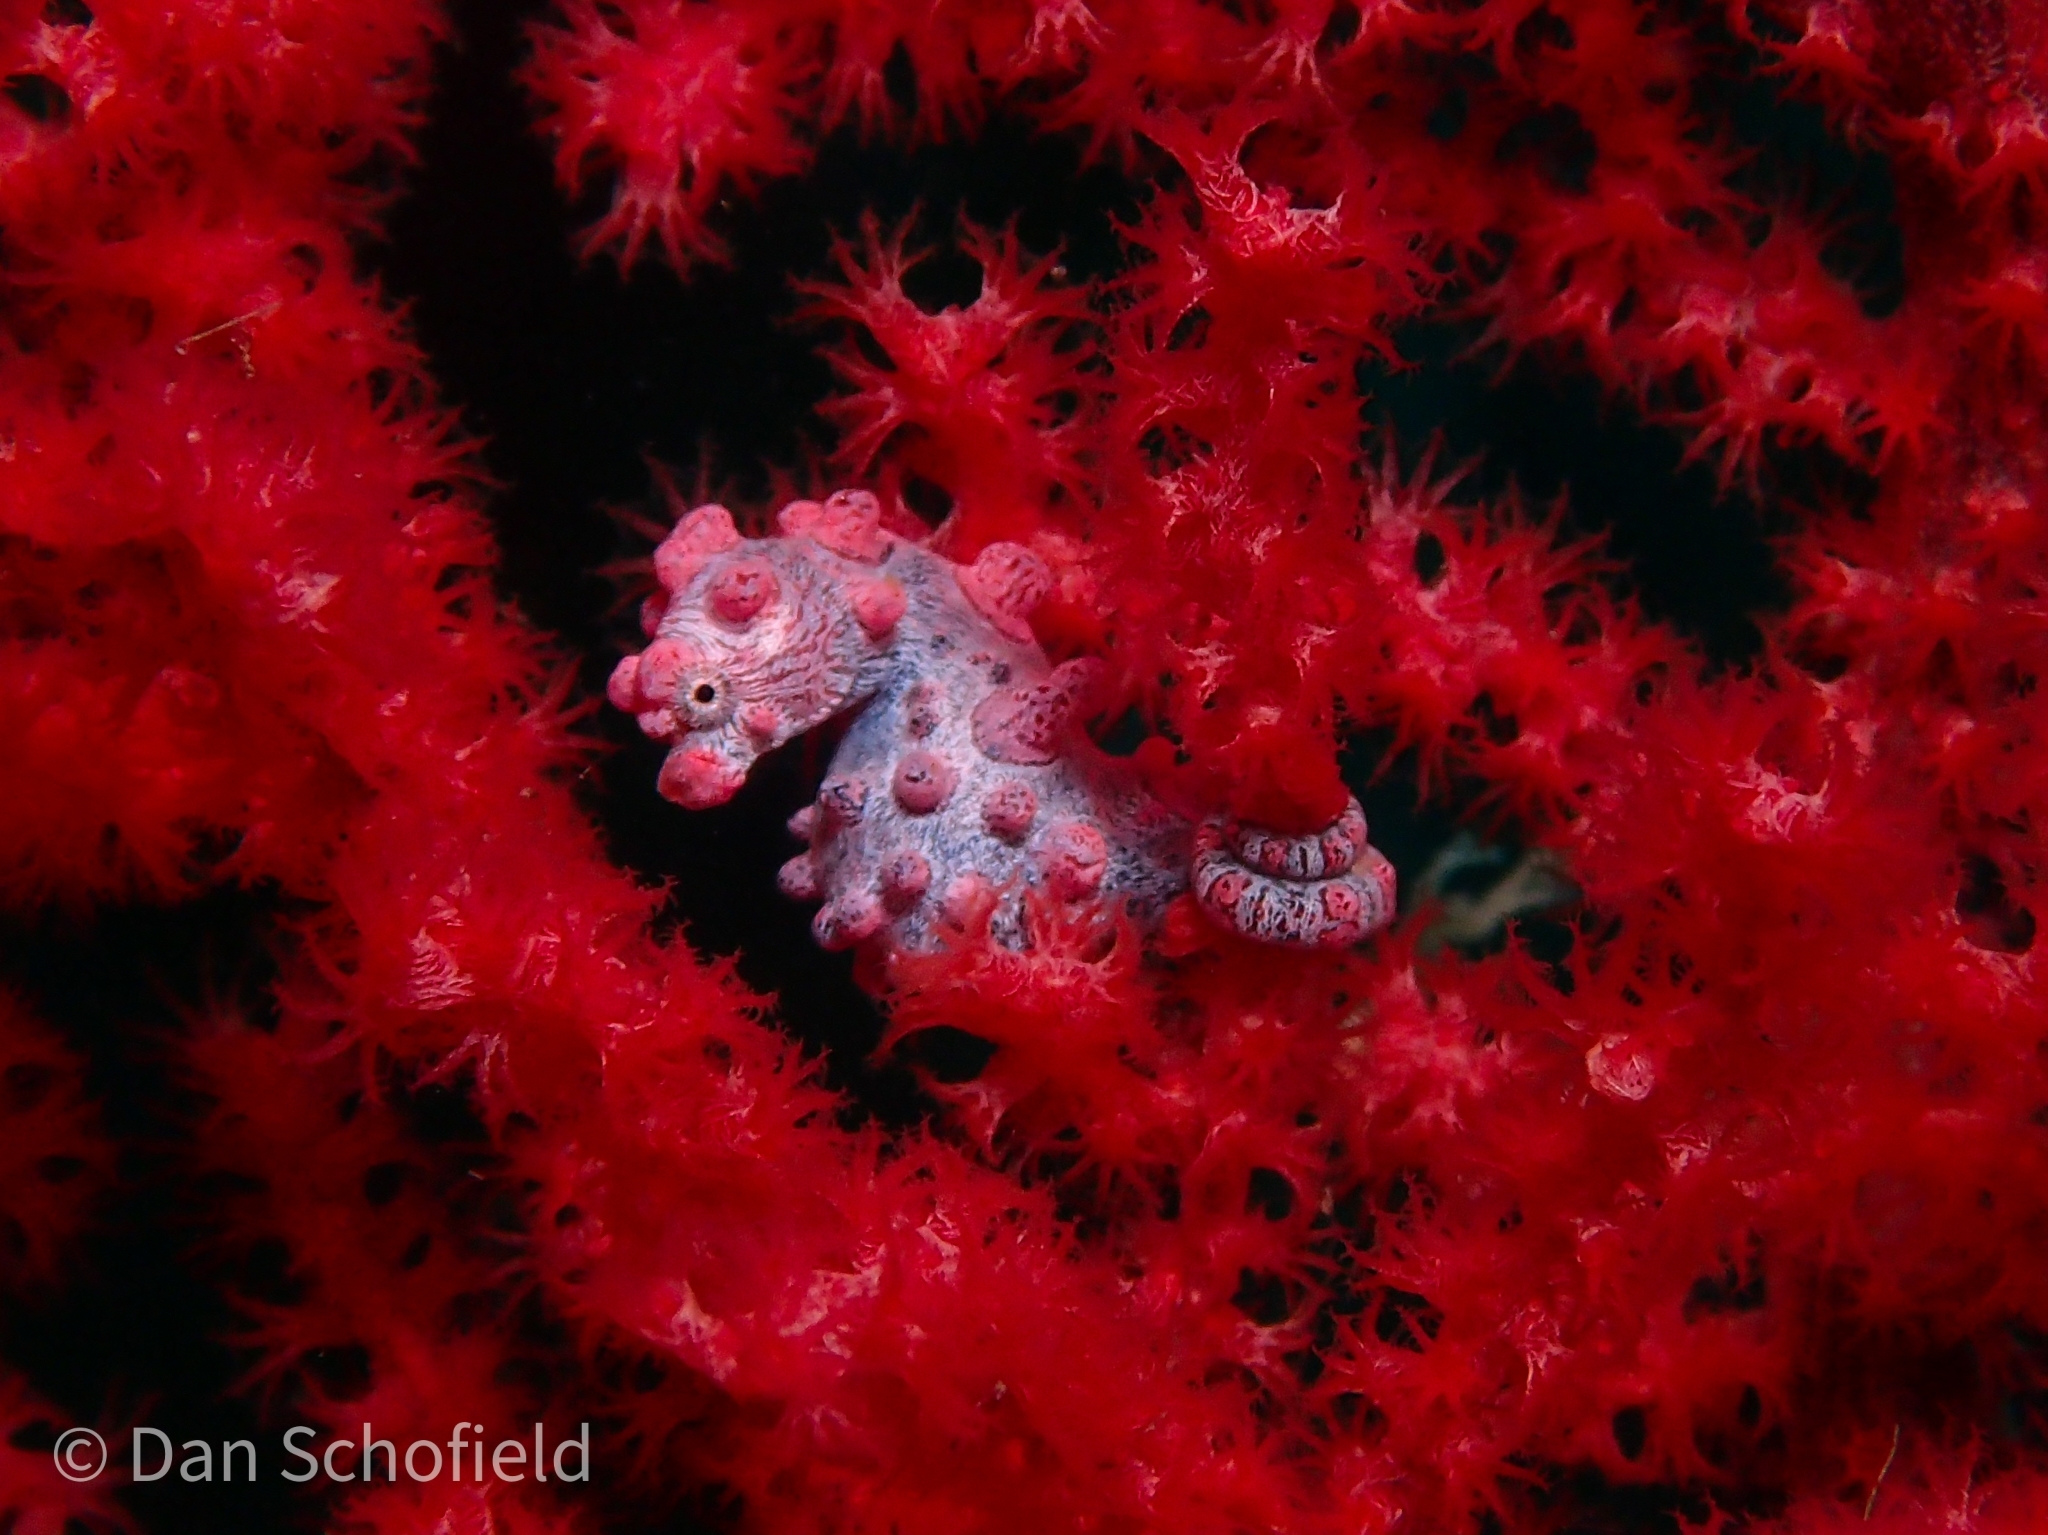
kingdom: Animalia
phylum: Chordata
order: Syngnathiformes
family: Syngnathidae
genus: Hippocampus
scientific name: Hippocampus bargibanti
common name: Bargibant's seahorse
